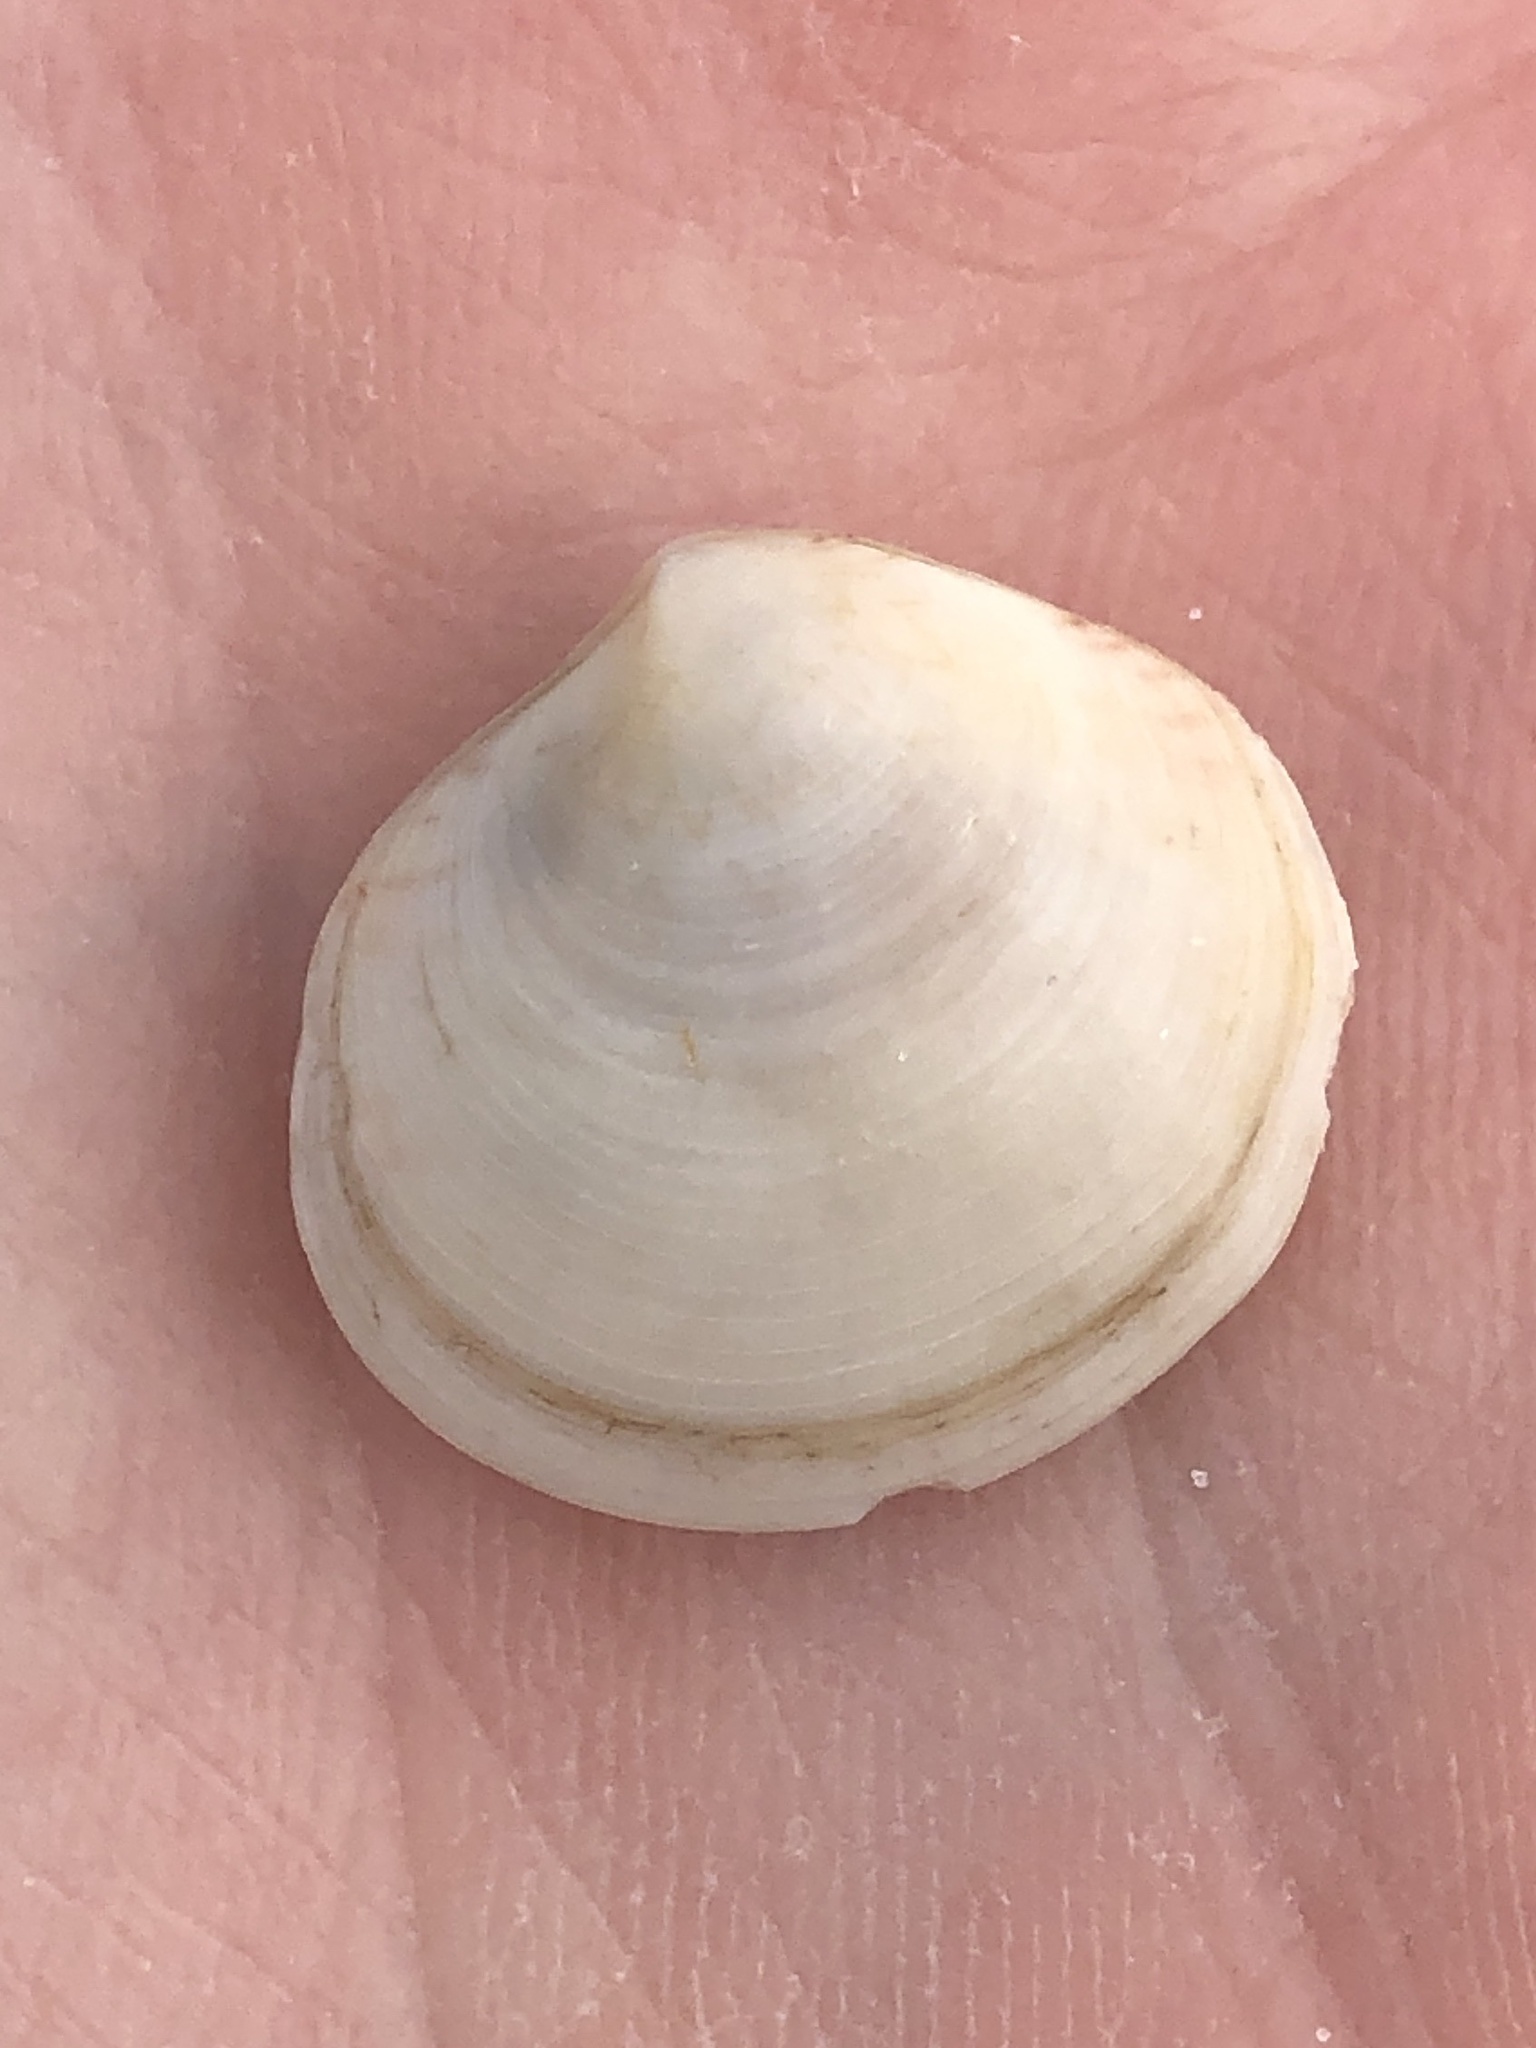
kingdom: Animalia
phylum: Mollusca
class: Bivalvia
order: Cardiida
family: Semelidae
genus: Semele
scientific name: Semele proficua
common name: White atlantic semele
